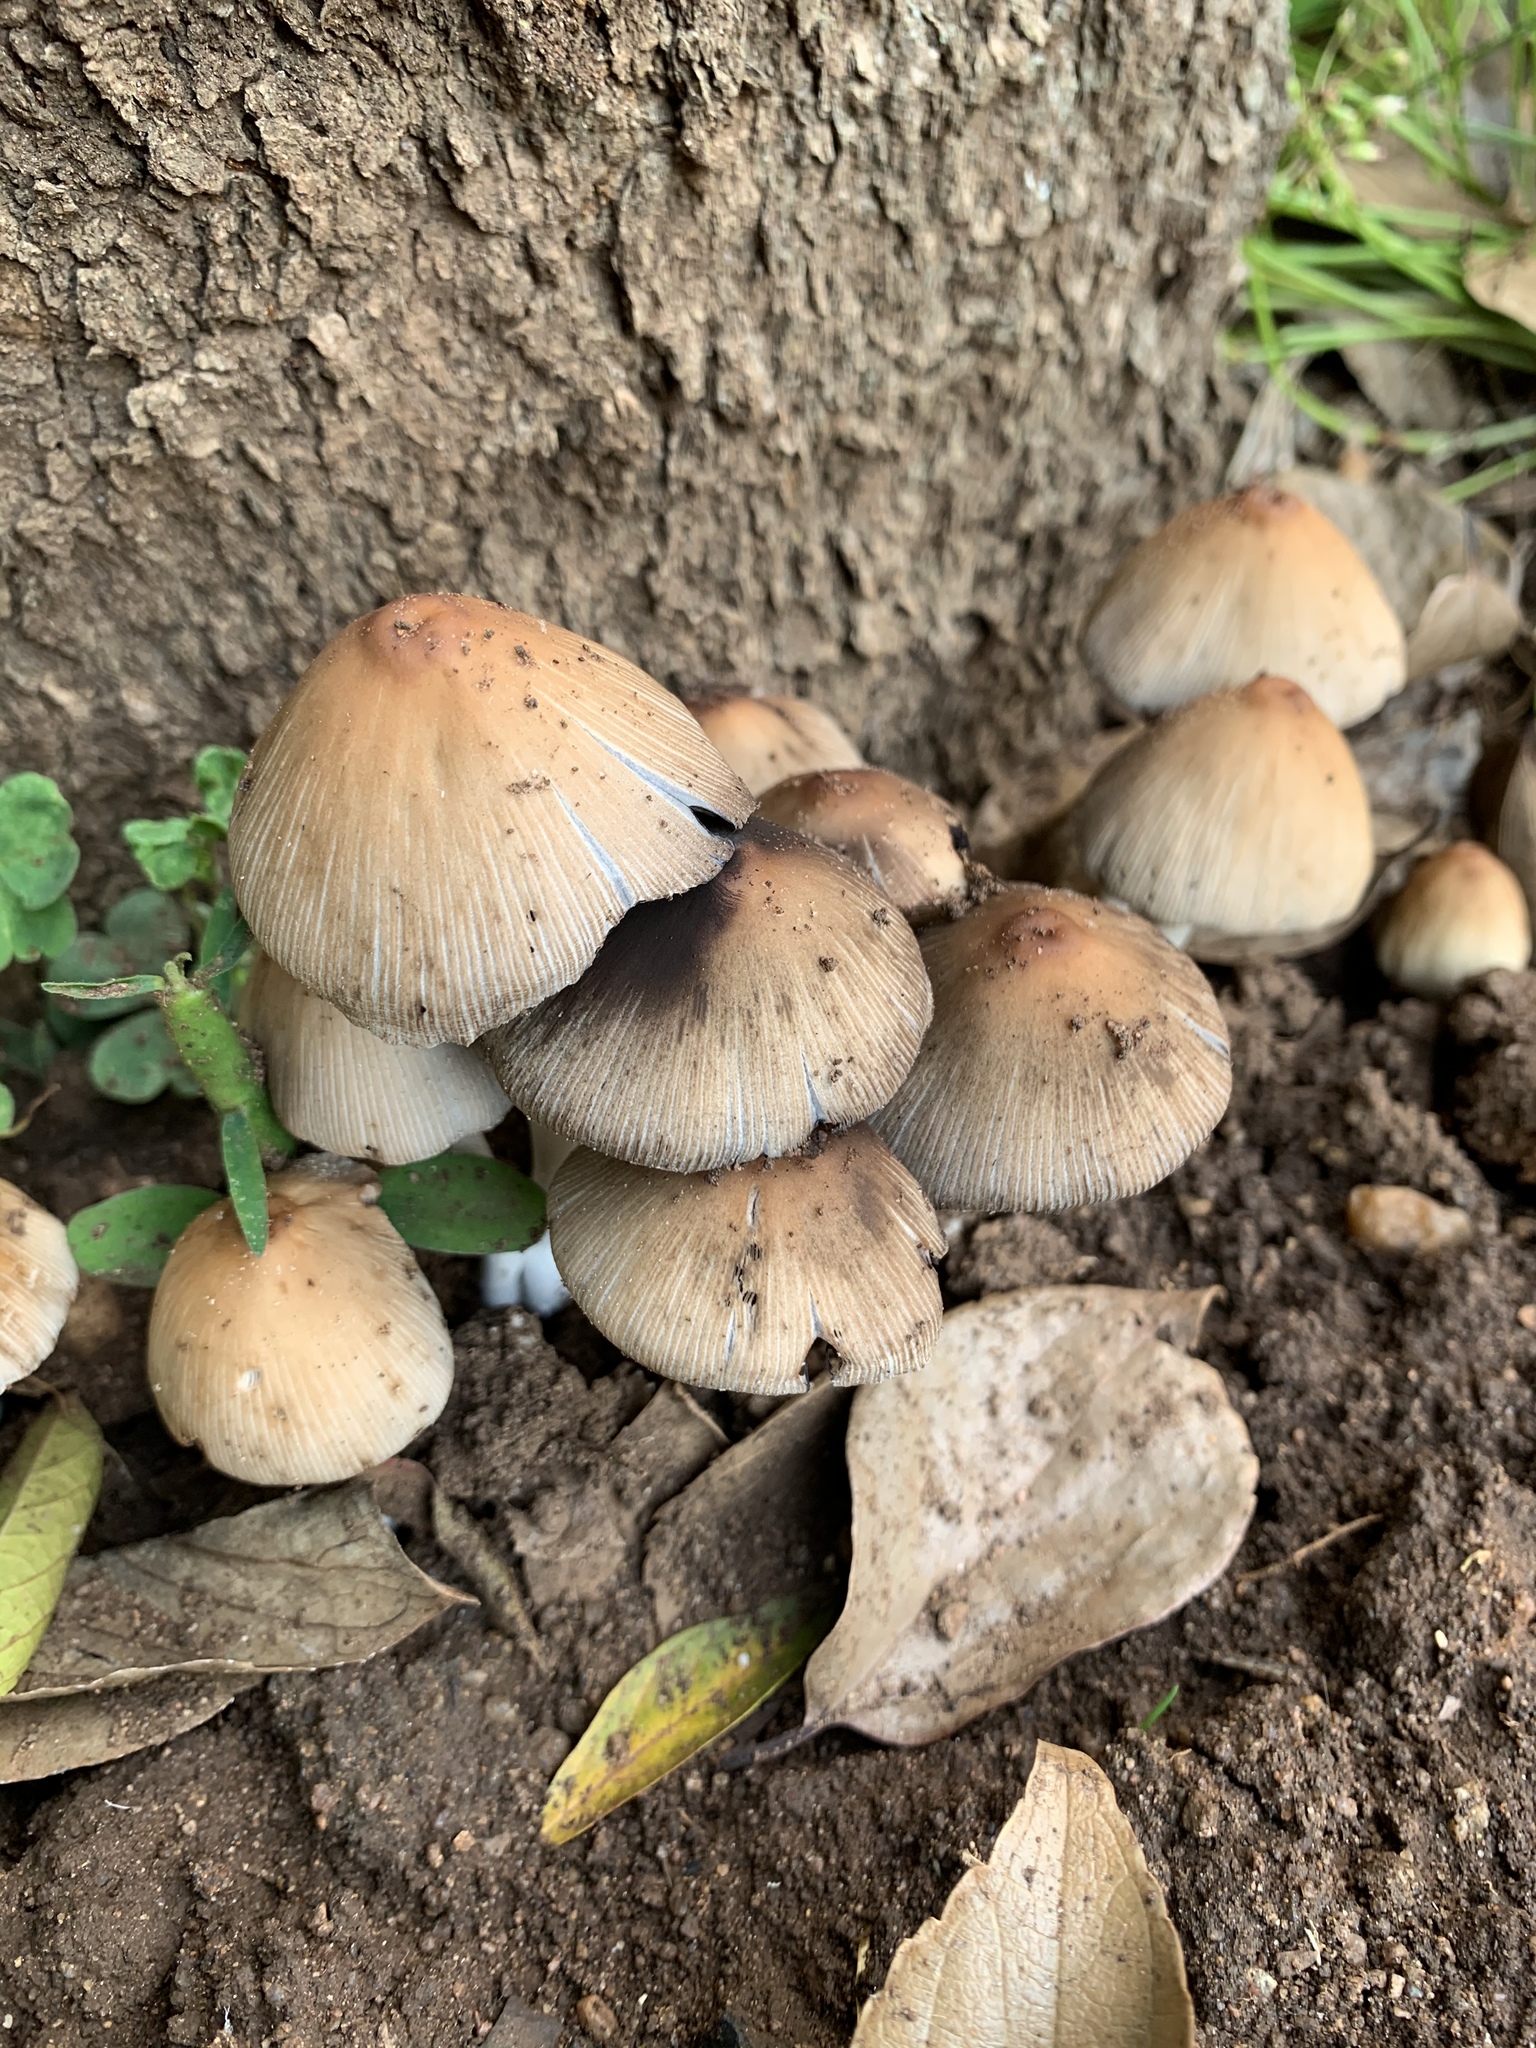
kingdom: Fungi
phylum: Basidiomycota
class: Agaricomycetes
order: Agaricales
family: Psathyrellaceae
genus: Coprinellus
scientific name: Coprinellus micaceus
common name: Glistening ink-cap
